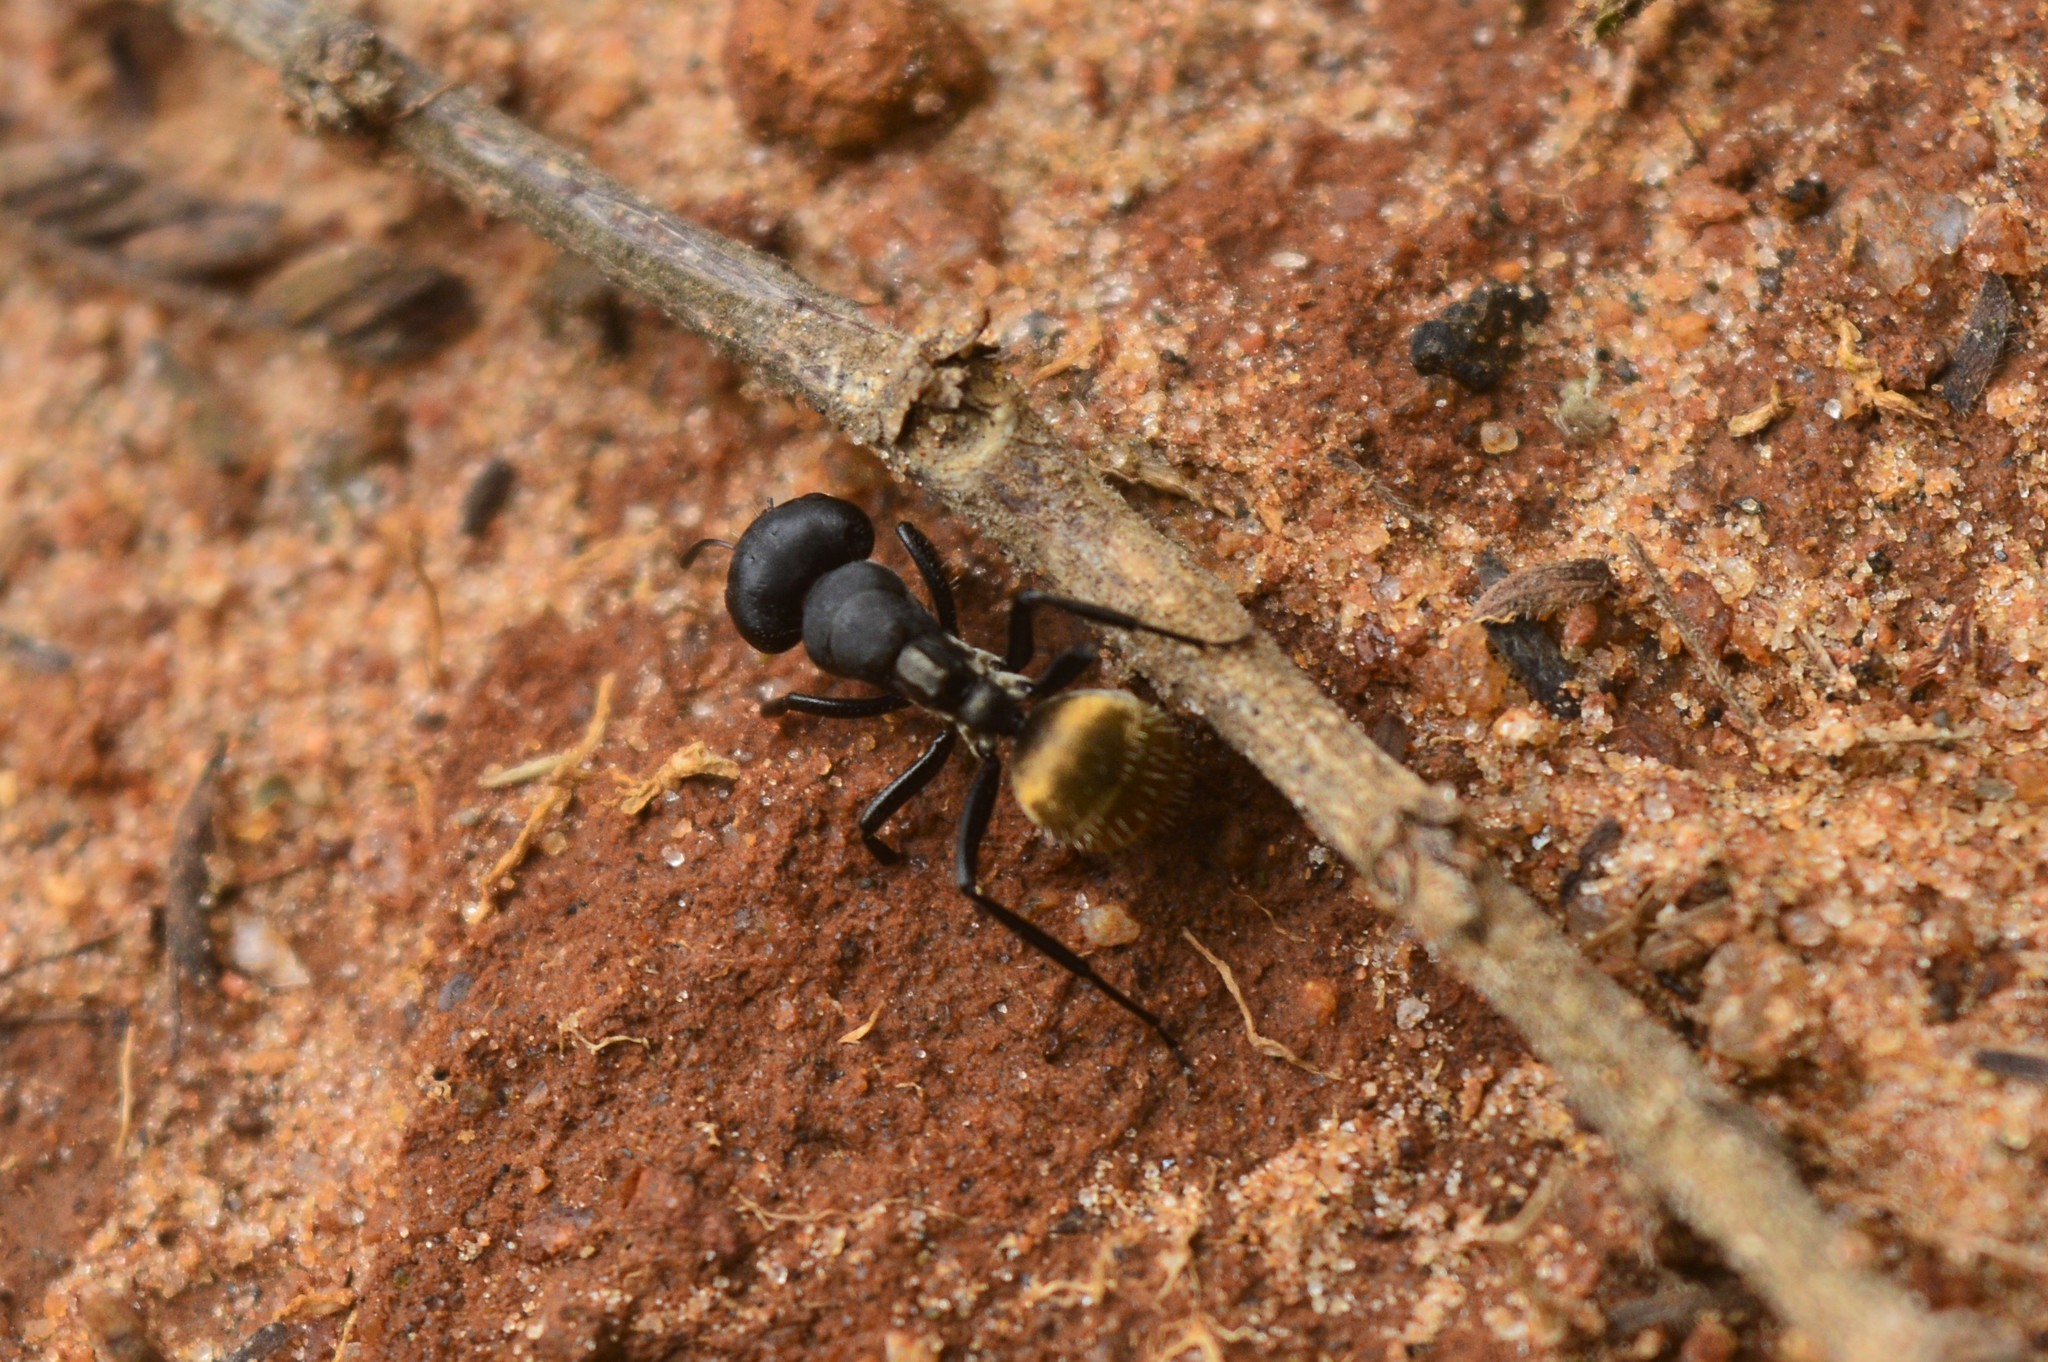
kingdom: Animalia
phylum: Arthropoda
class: Insecta
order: Hymenoptera
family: Formicidae
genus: Camponotus
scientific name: Camponotus sericeus
